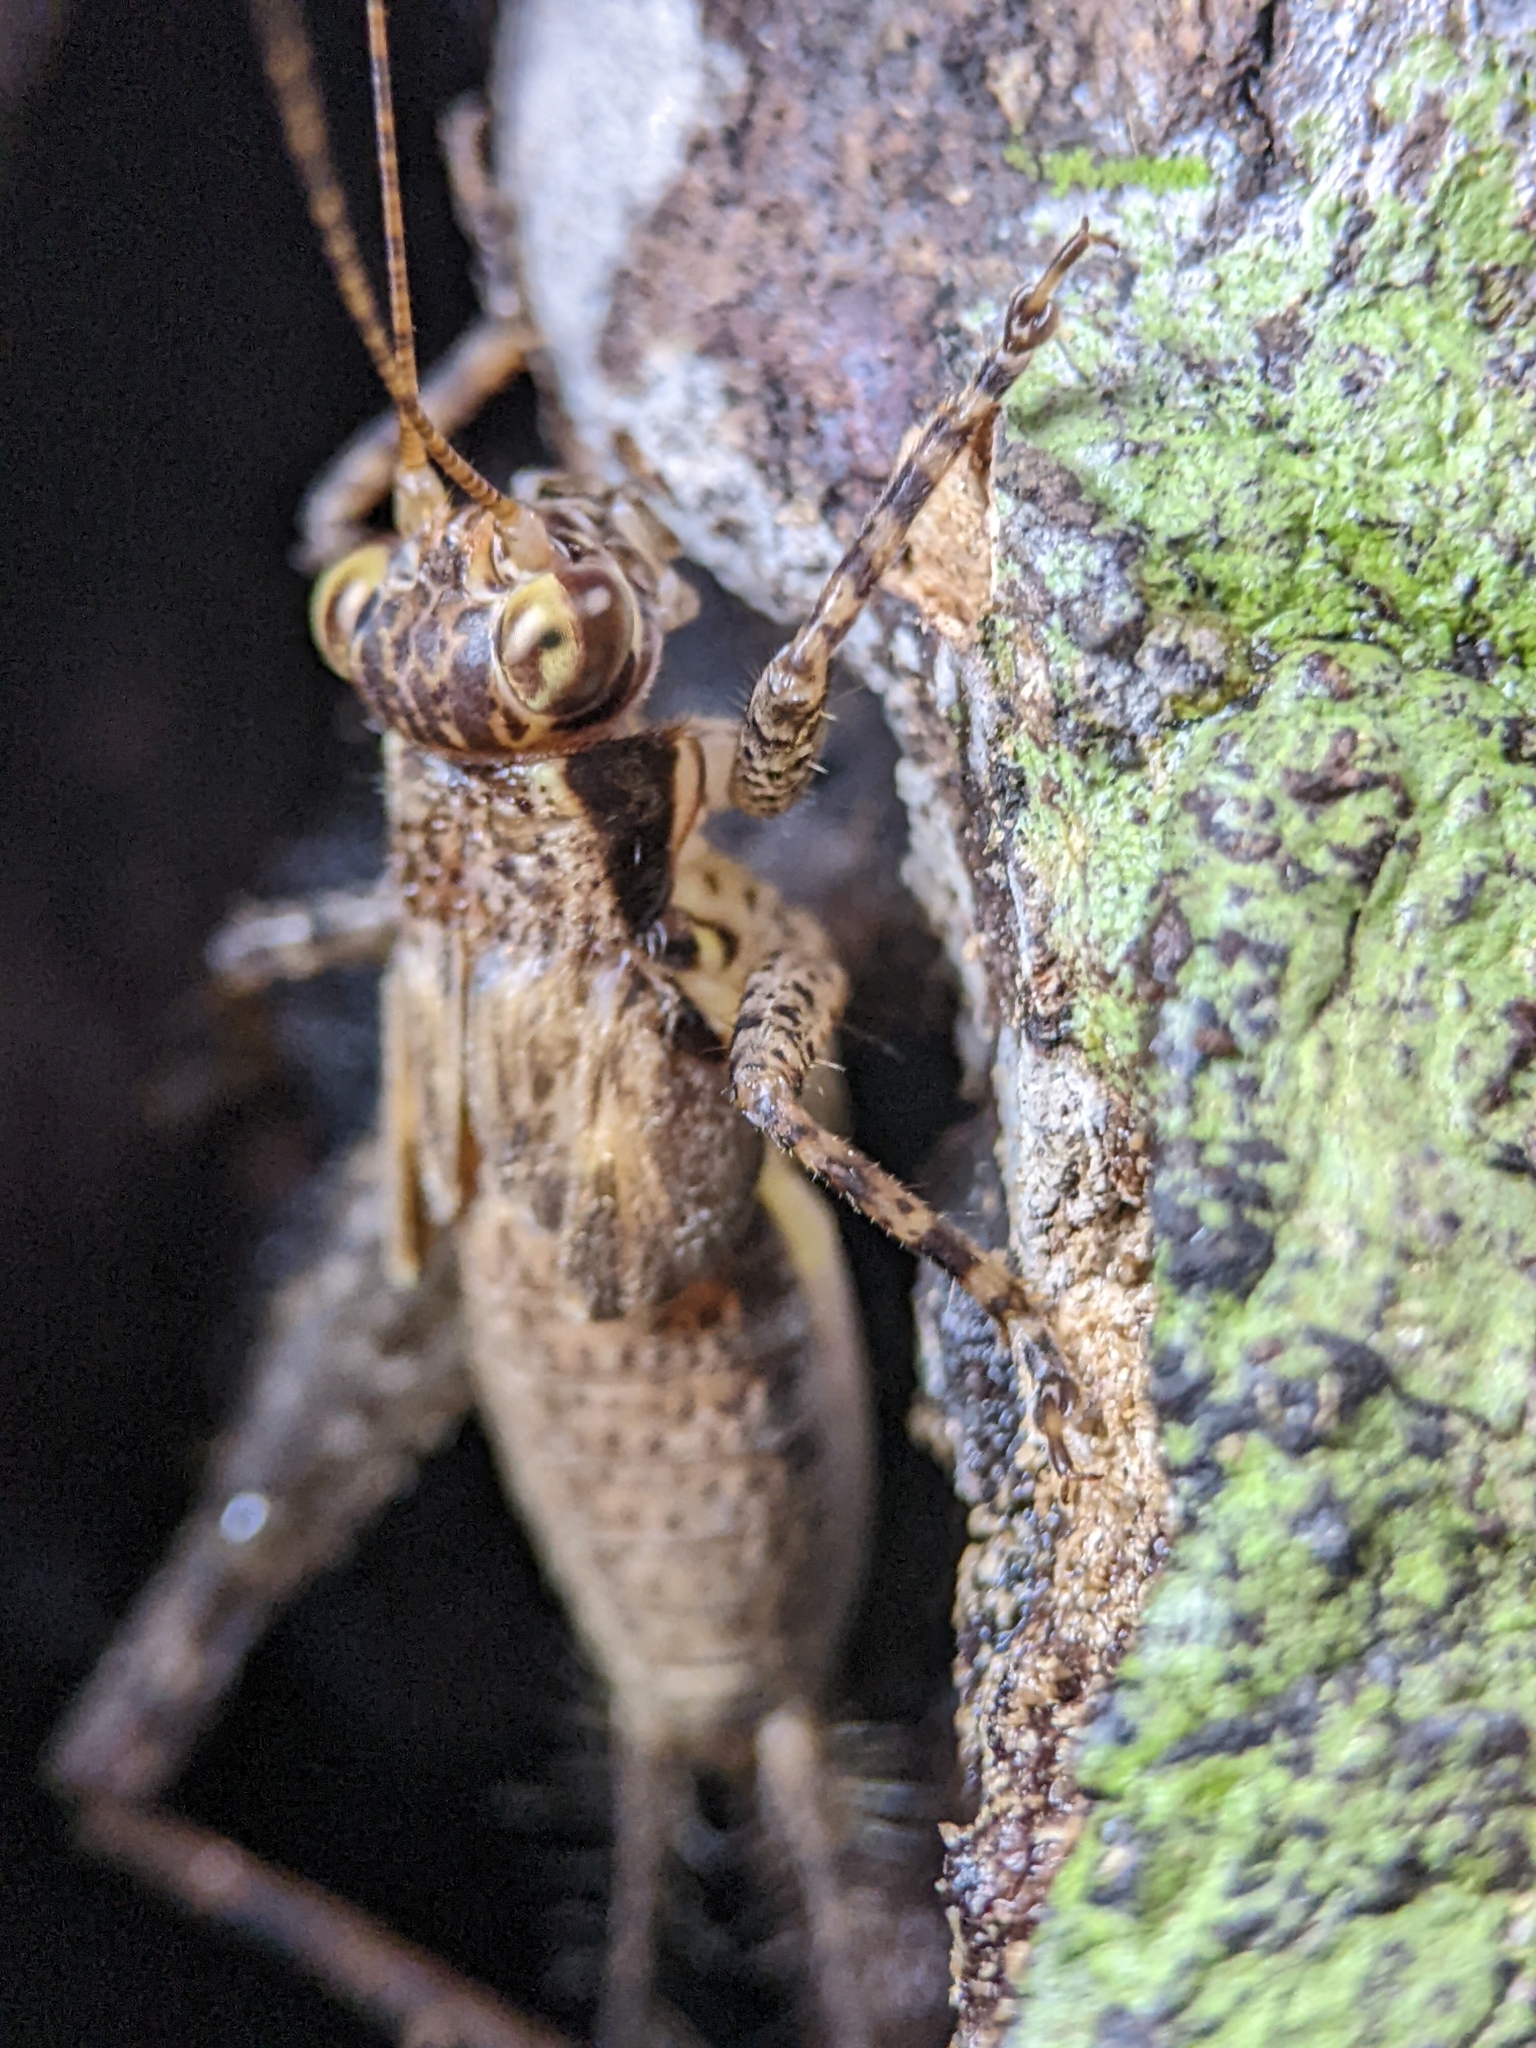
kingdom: Animalia
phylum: Arthropoda
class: Insecta
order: Orthoptera
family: Gryllidae
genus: Cardiodactylus
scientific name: Cardiodactylus singapura
